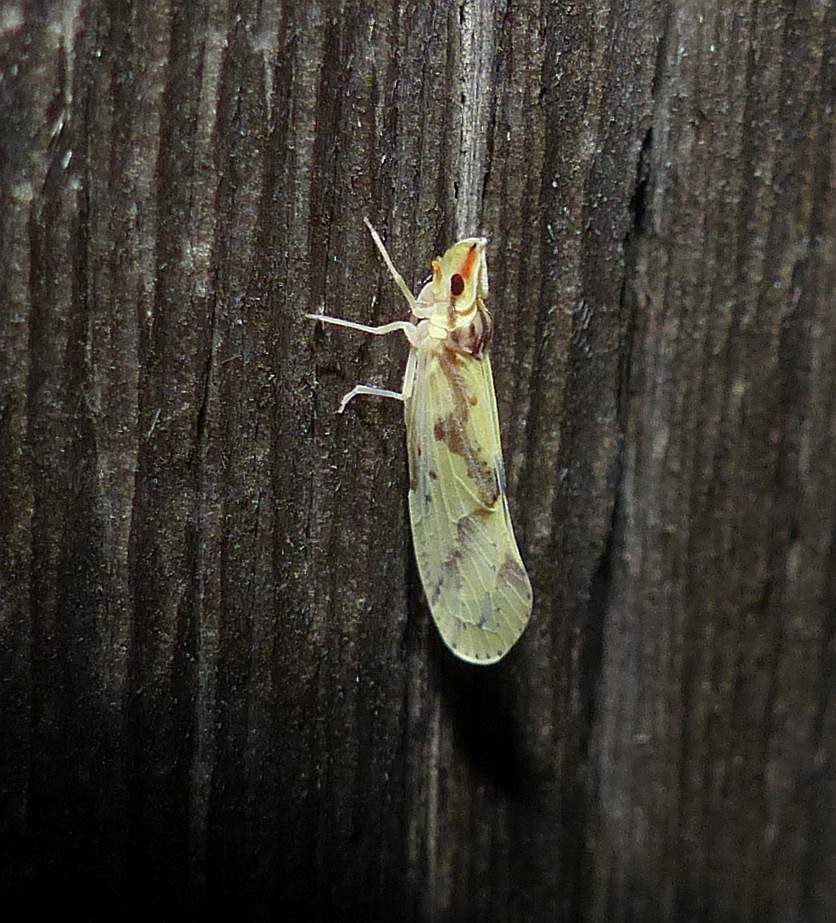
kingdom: Animalia
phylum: Arthropoda
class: Insecta
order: Hemiptera
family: Derbidae
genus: Otiocerus
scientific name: Otiocerus wolfii
